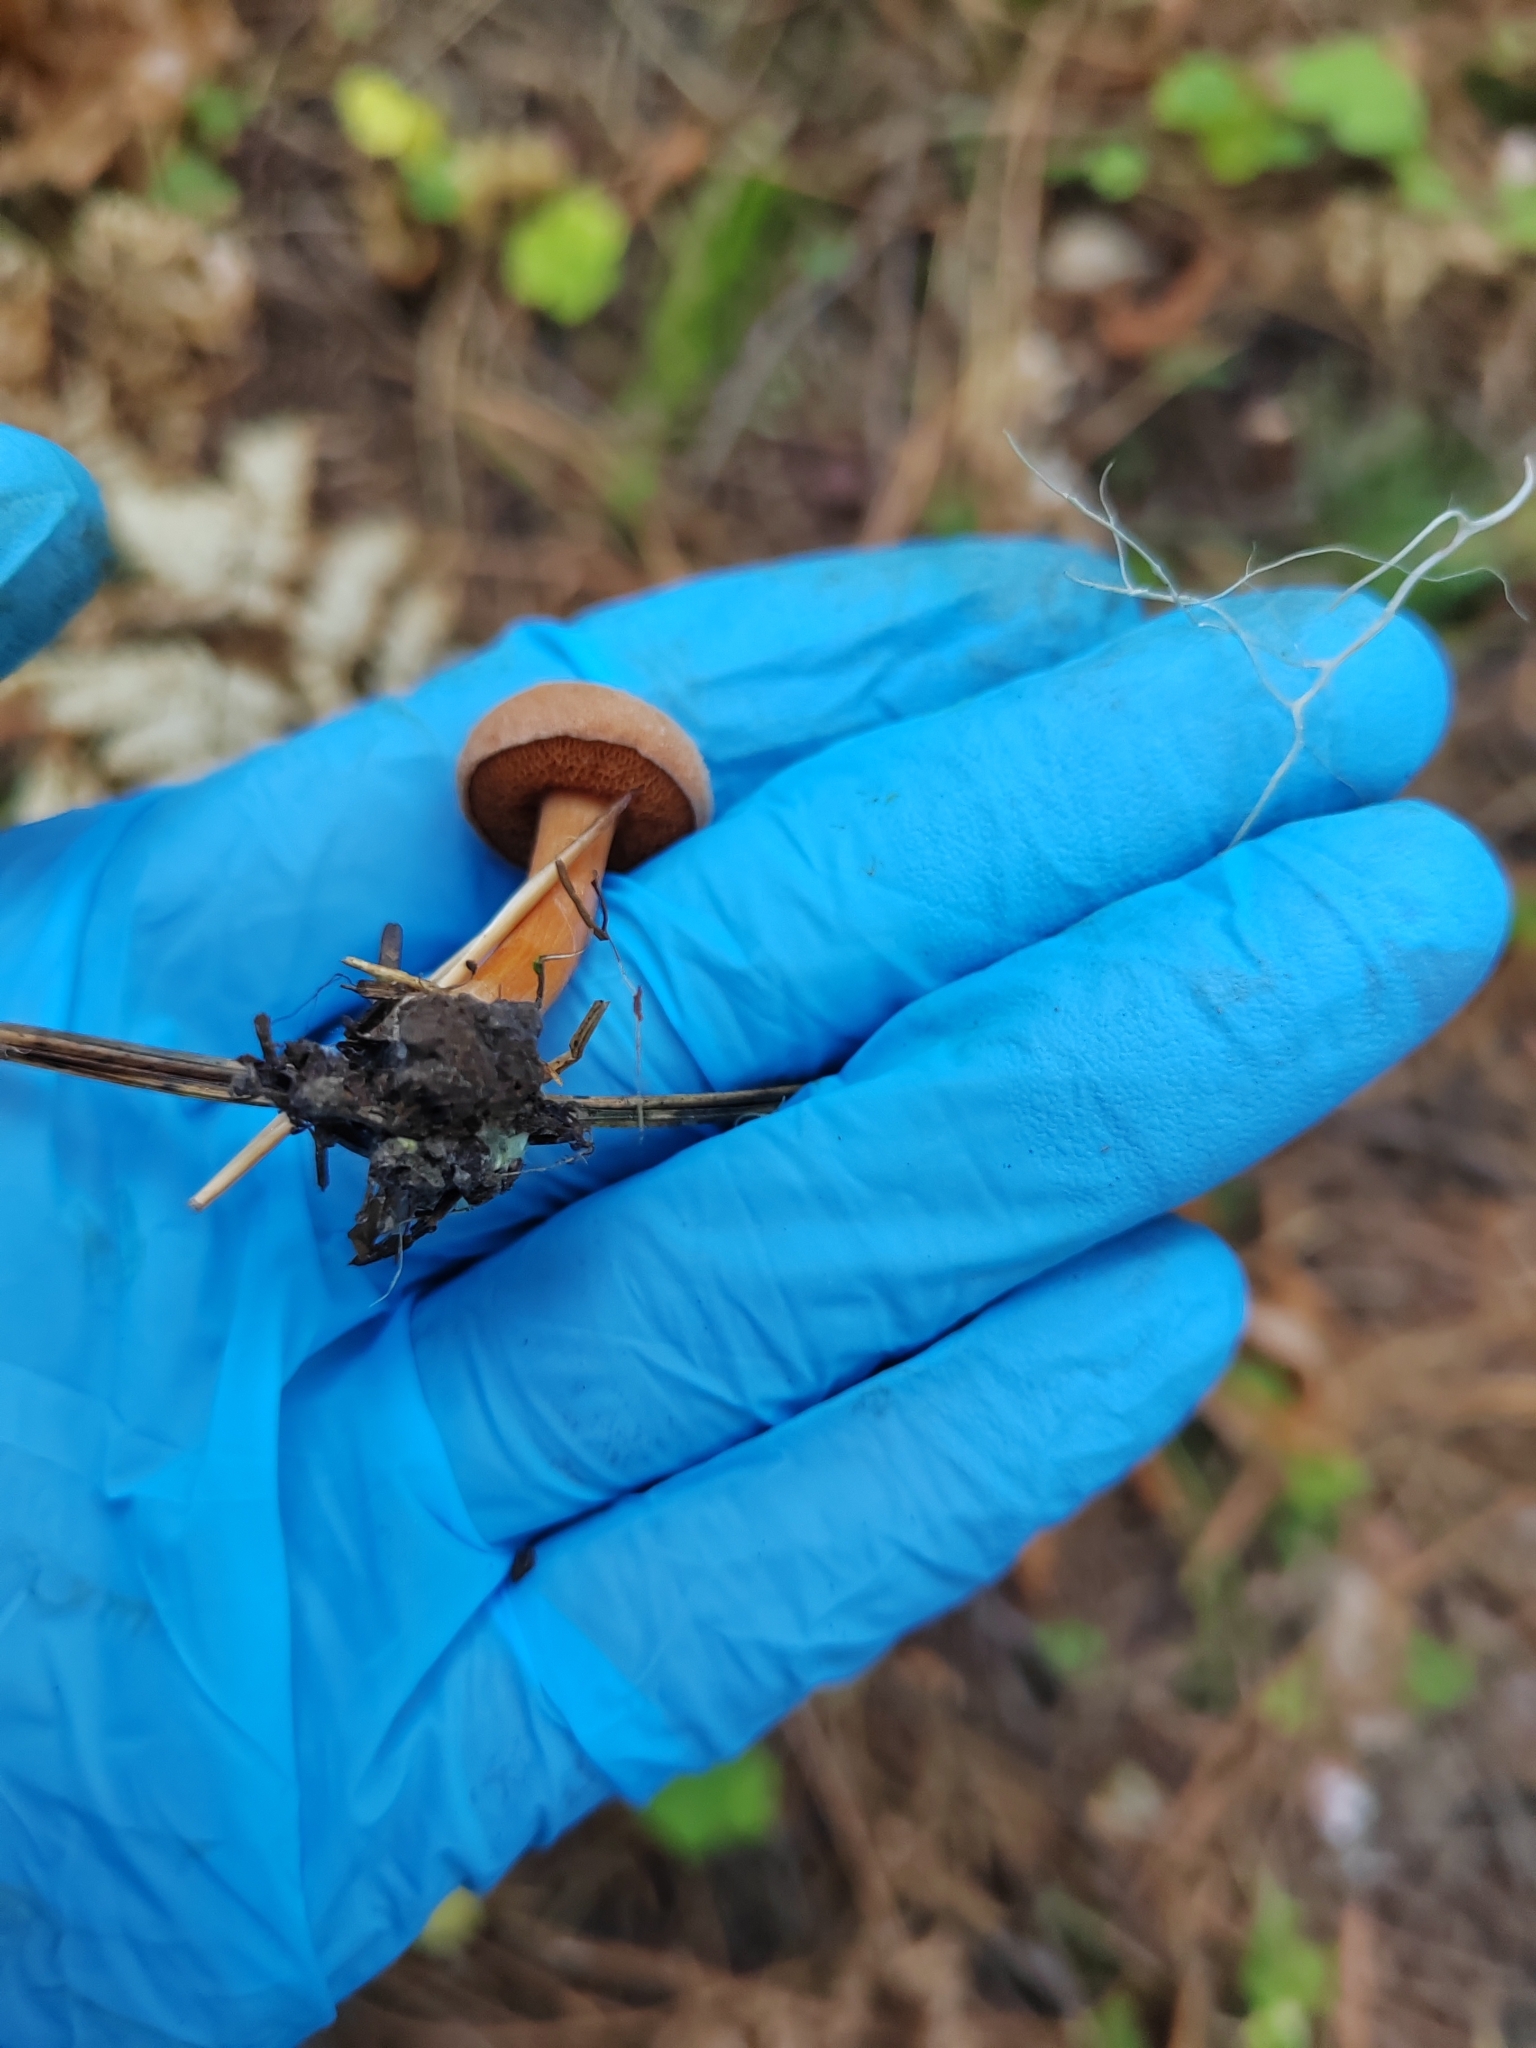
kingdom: Fungi
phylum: Basidiomycota
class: Agaricomycetes
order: Boletales
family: Boletaceae
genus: Chalciporus
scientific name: Chalciporus piperatus
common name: Peppery bolete
